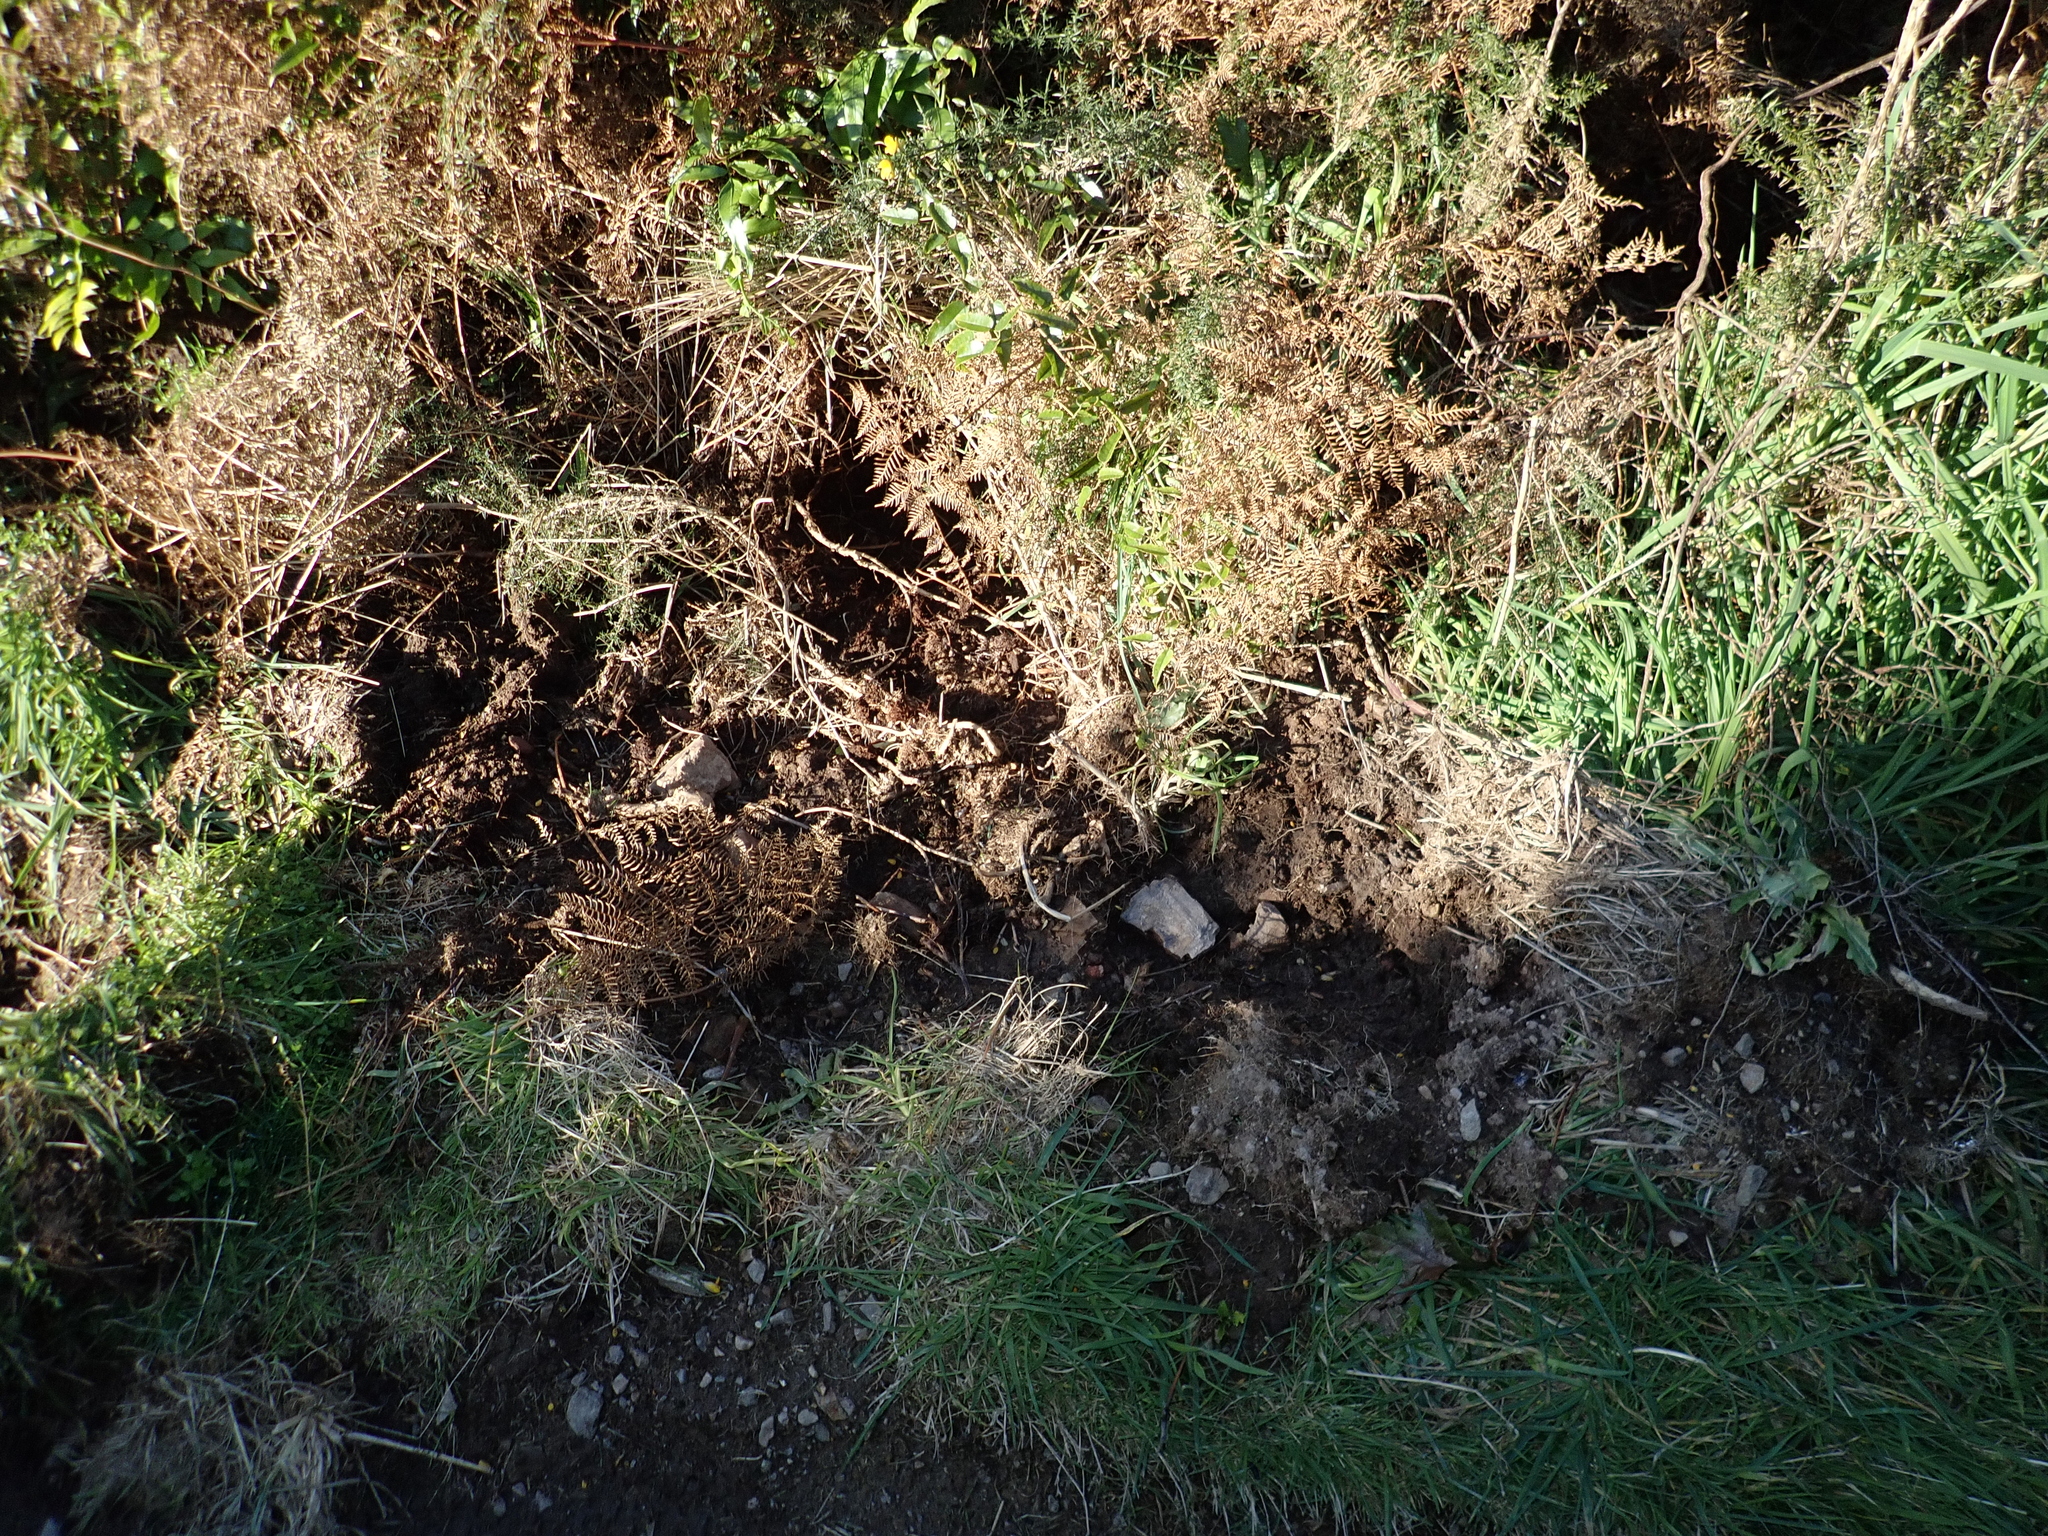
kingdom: Animalia
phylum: Chordata
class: Mammalia
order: Artiodactyla
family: Suidae
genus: Sus
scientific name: Sus scrofa
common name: Wild boar
